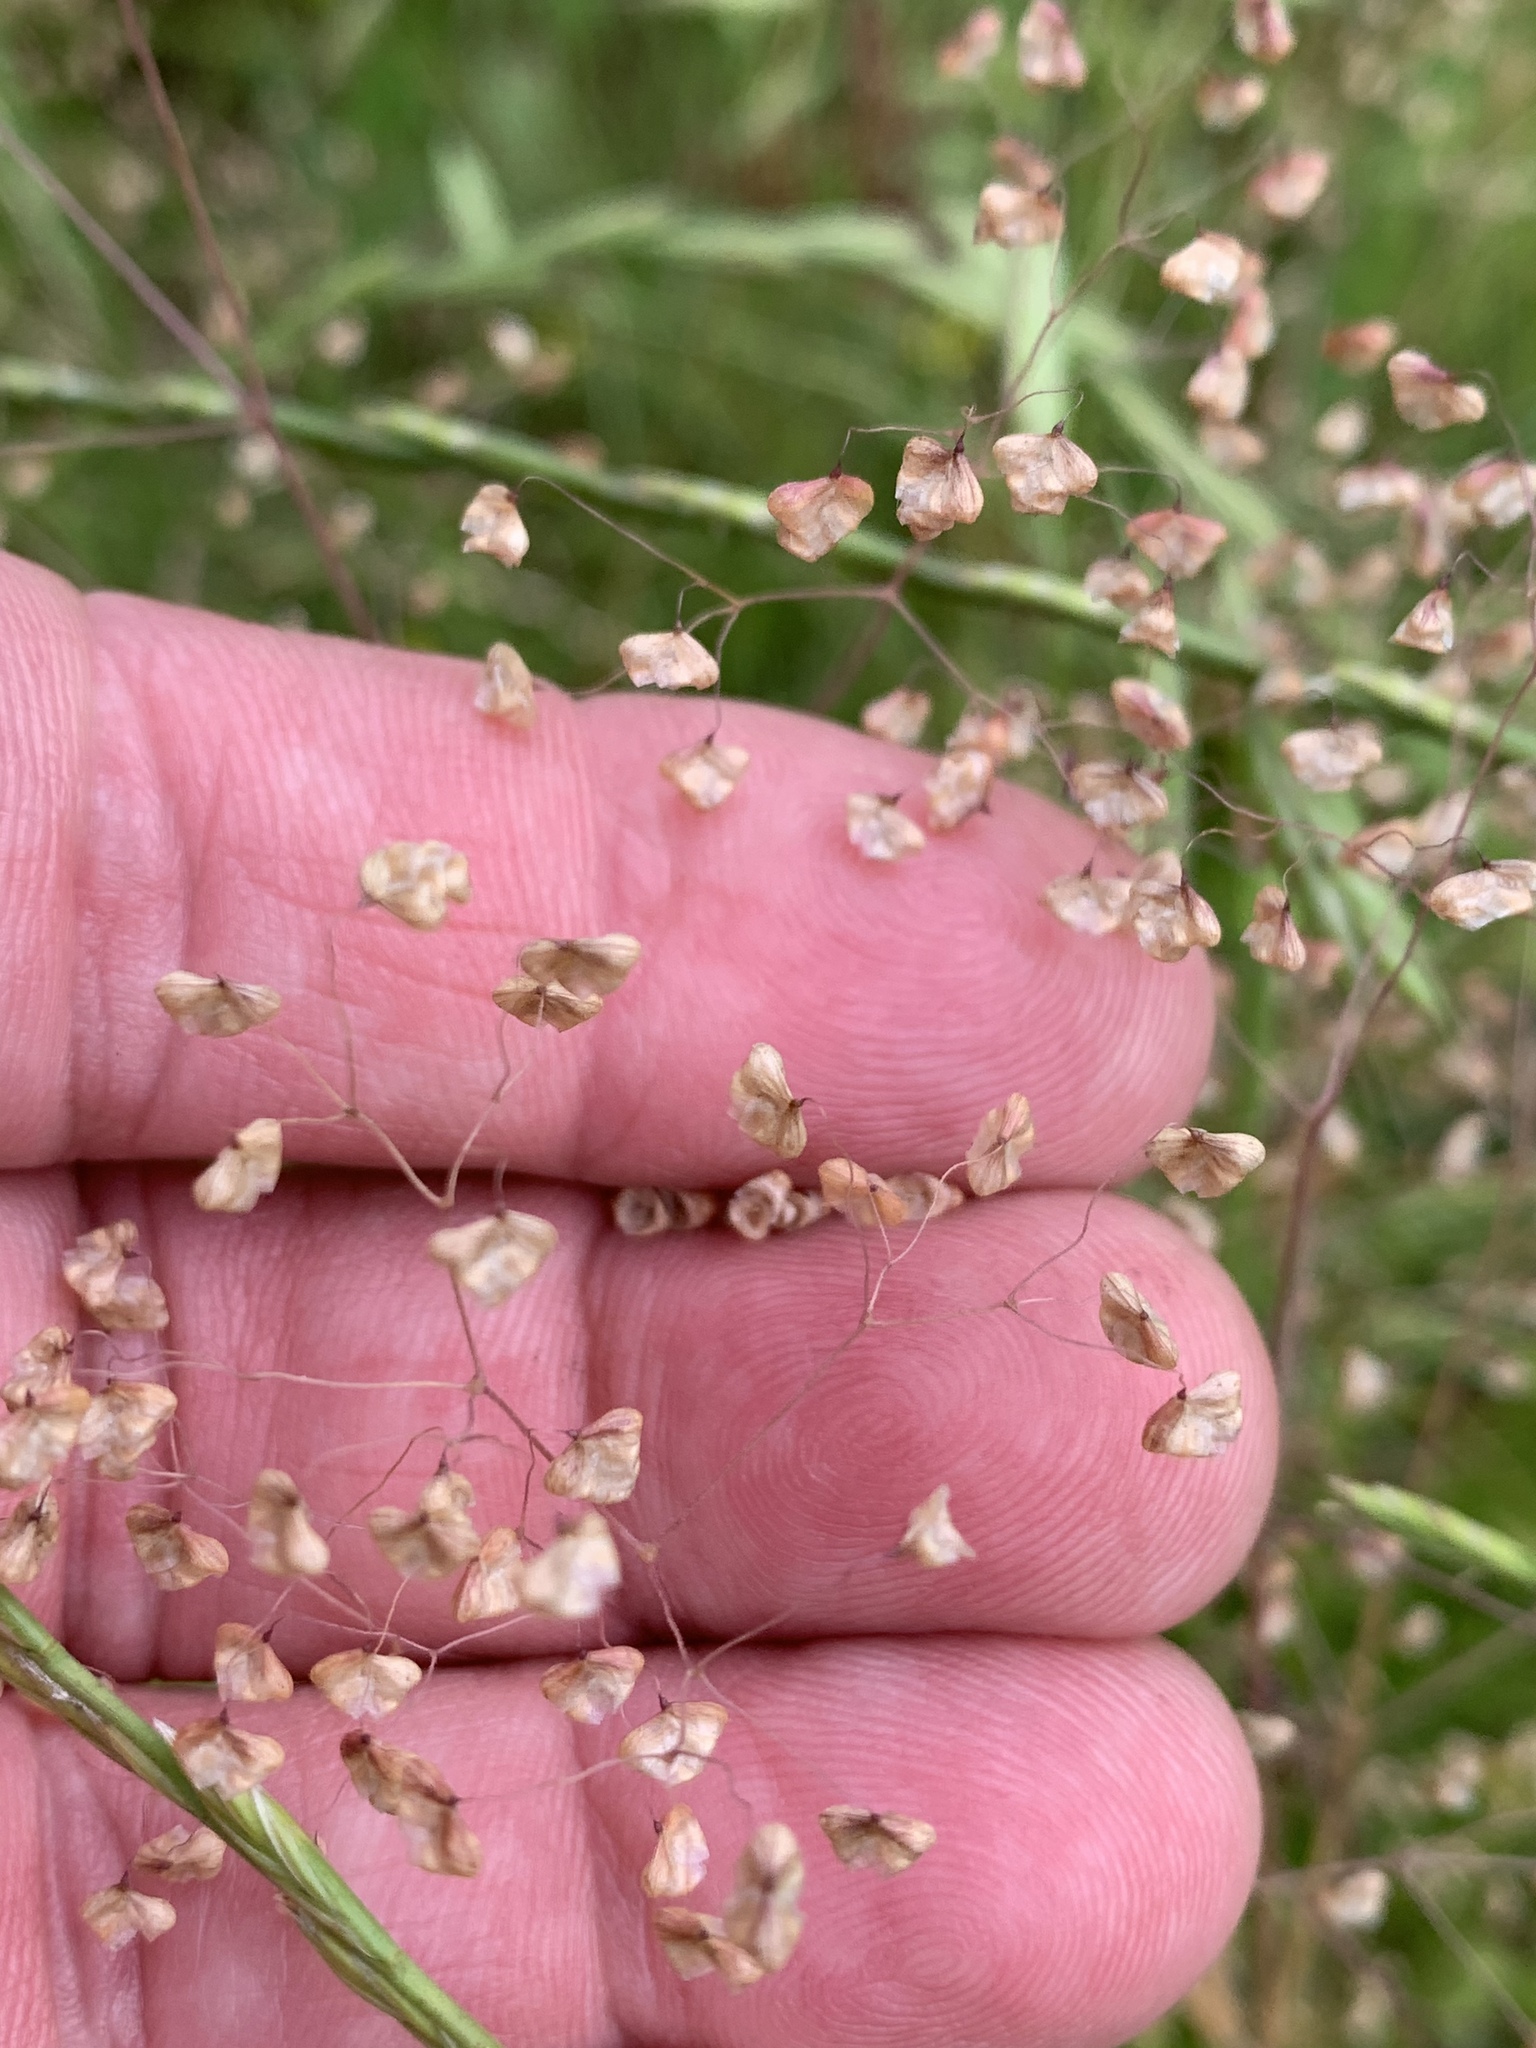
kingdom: Plantae
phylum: Tracheophyta
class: Liliopsida
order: Poales
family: Poaceae
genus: Briza
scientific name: Briza minor
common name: Lesser quaking-grass
